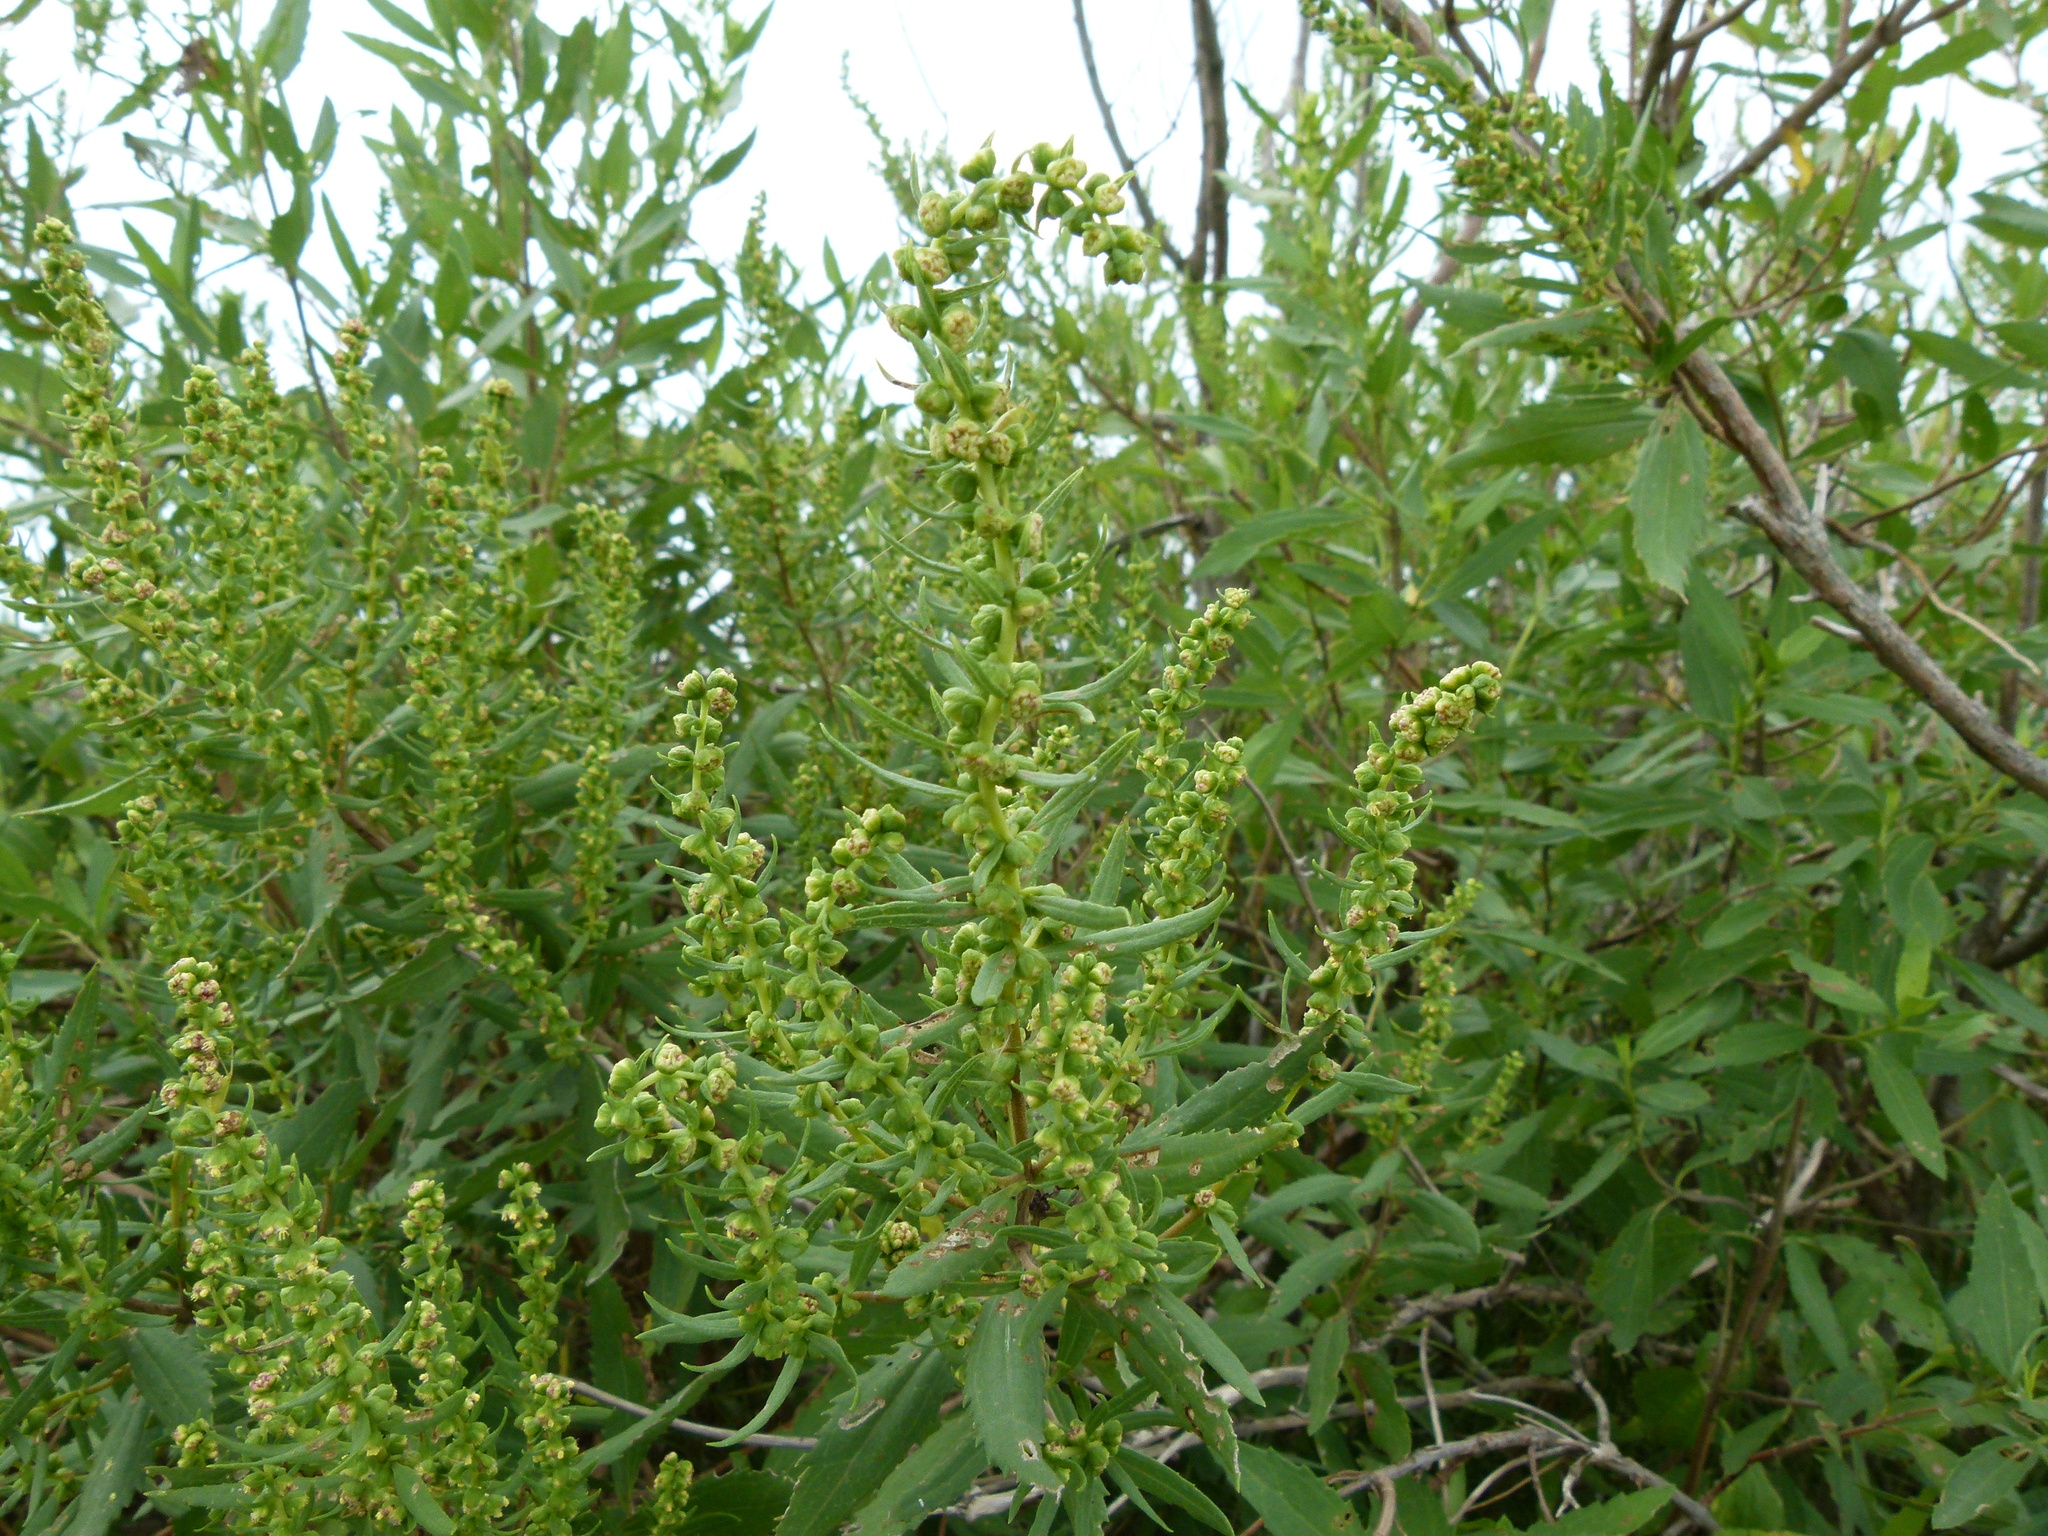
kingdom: Plantae
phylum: Tracheophyta
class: Magnoliopsida
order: Asterales
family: Asteraceae
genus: Iva
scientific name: Iva frutescens
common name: Big-leaved marsh-elder
